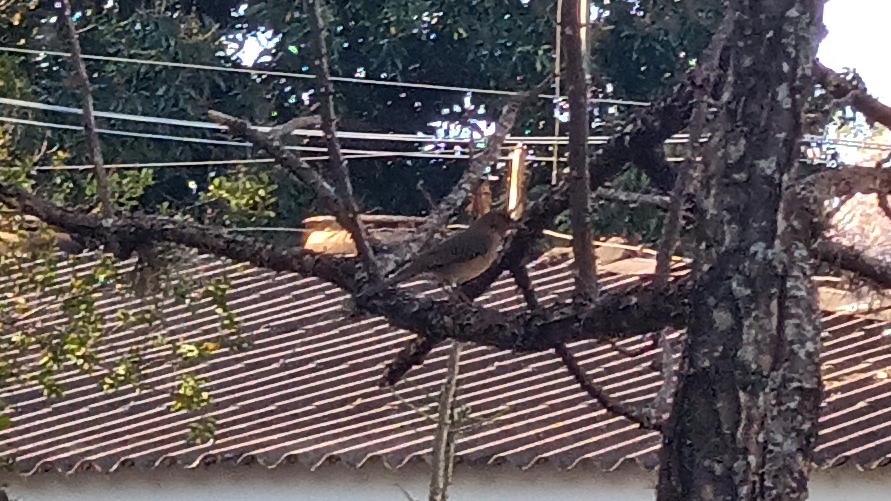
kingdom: Animalia
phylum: Chordata
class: Aves
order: Passeriformes
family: Turdidae
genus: Turdus
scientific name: Turdus amaurochalinus
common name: Creamy-bellied thrush
